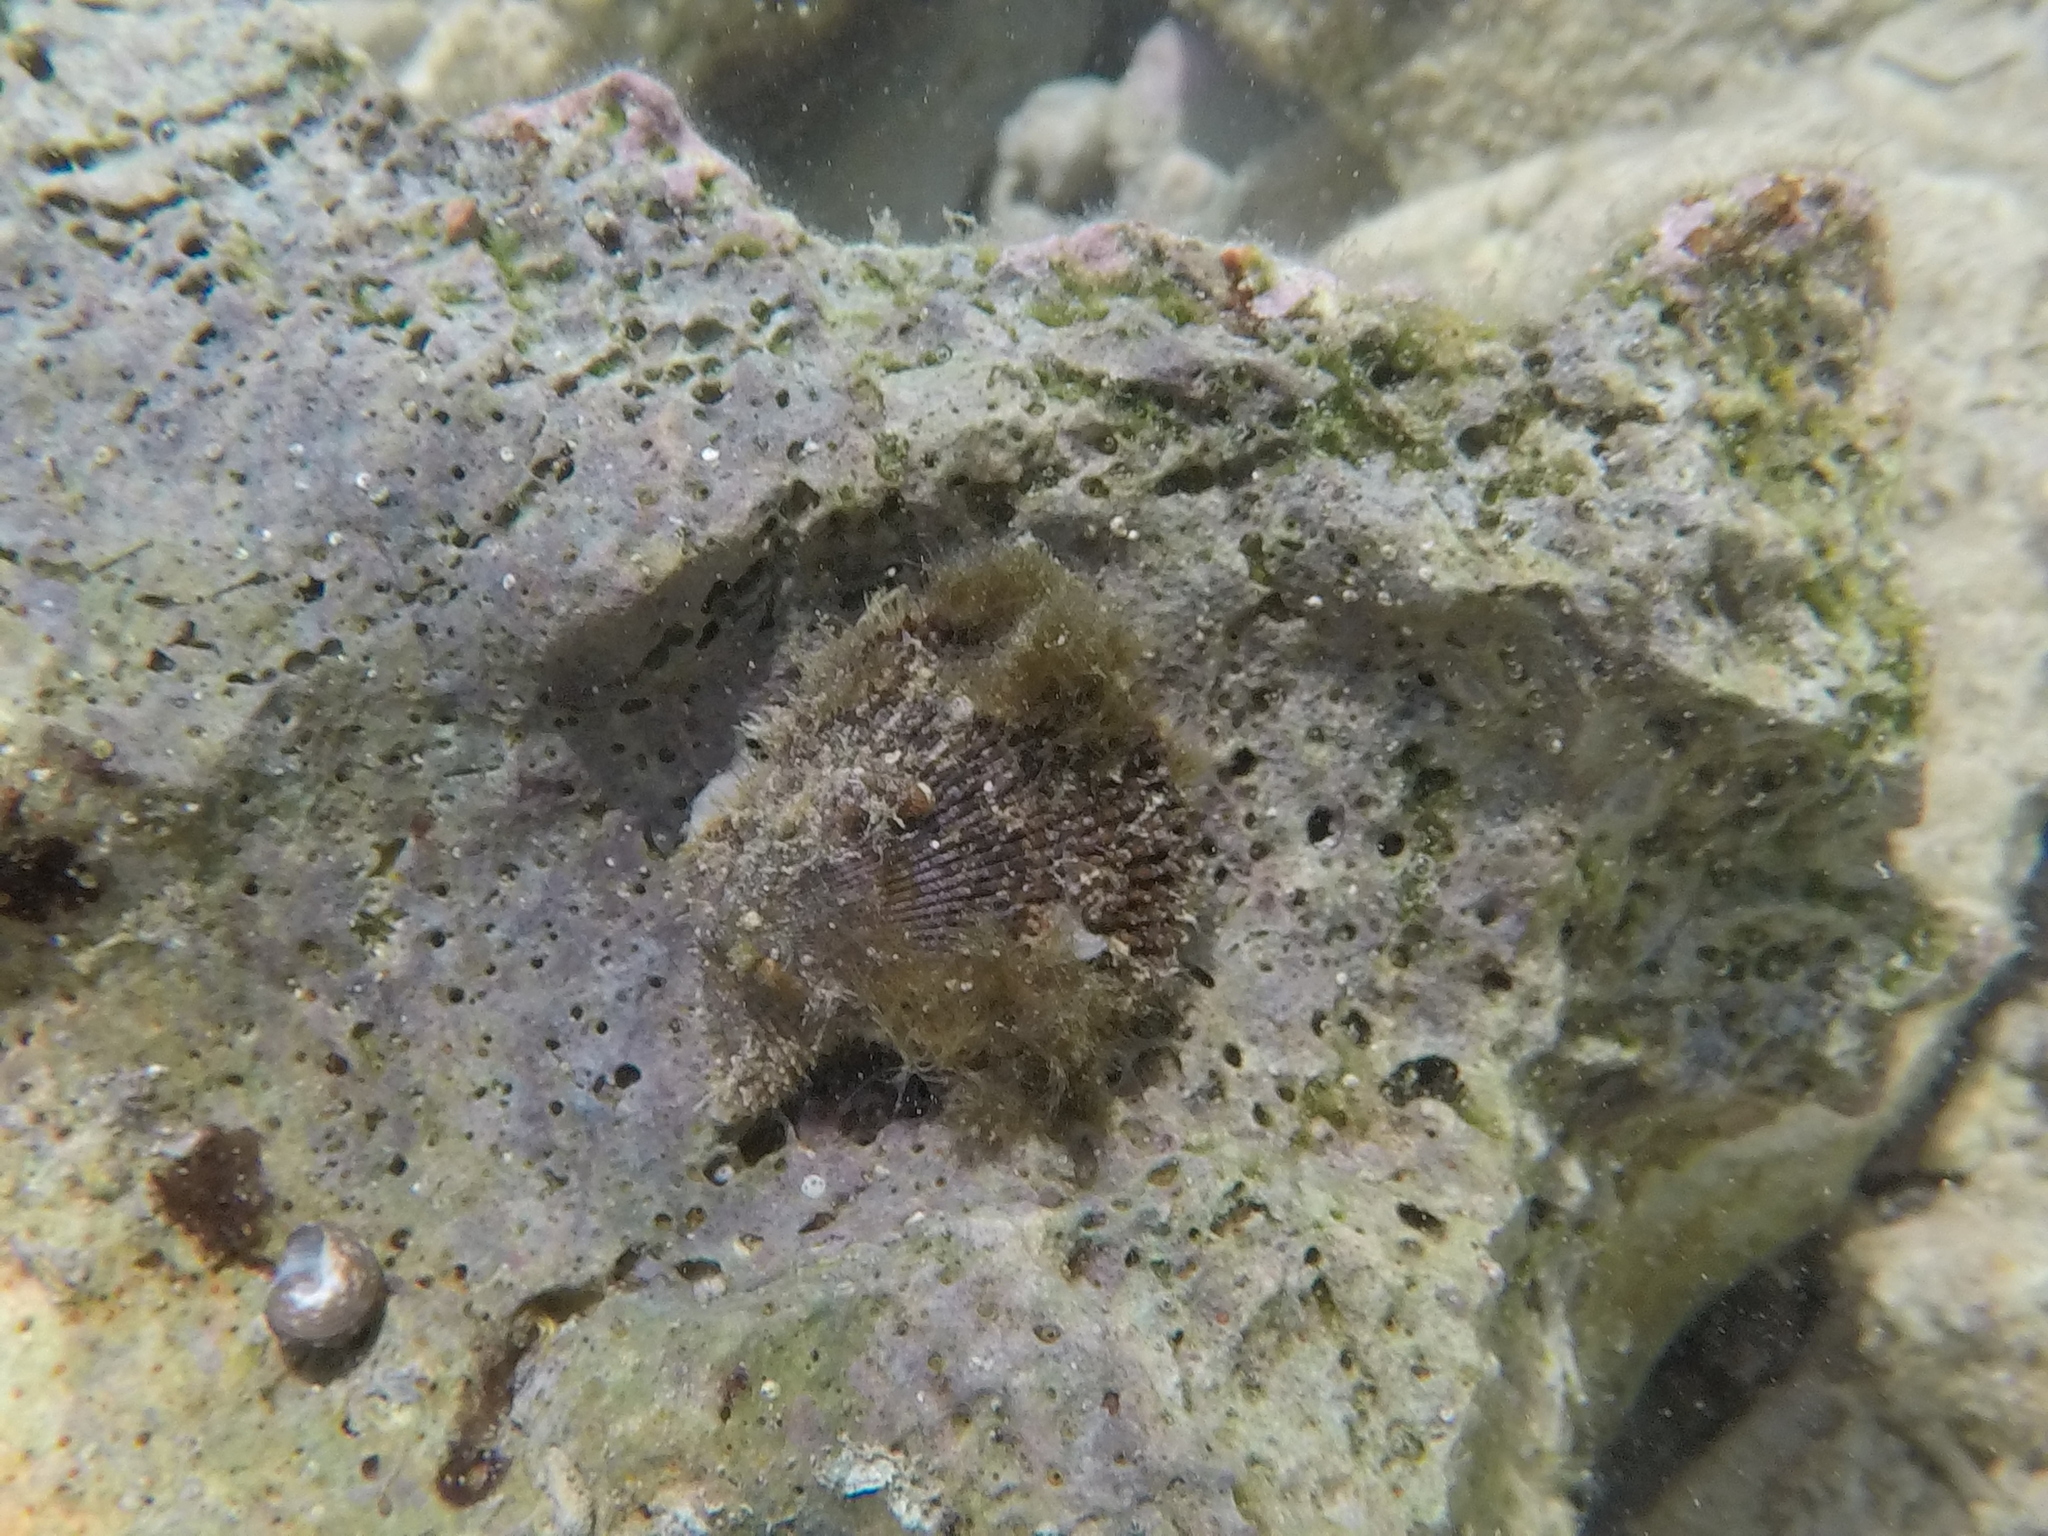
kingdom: Animalia
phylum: Mollusca
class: Bivalvia
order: Pectinida
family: Pectinidae
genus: Mimachlamys
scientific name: Mimachlamys varia
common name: Variegated scallop
